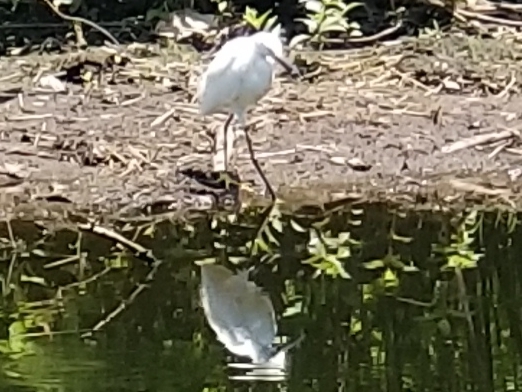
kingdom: Animalia
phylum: Chordata
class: Aves
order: Pelecaniformes
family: Ardeidae
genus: Egretta
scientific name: Egretta thula
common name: Snowy egret
